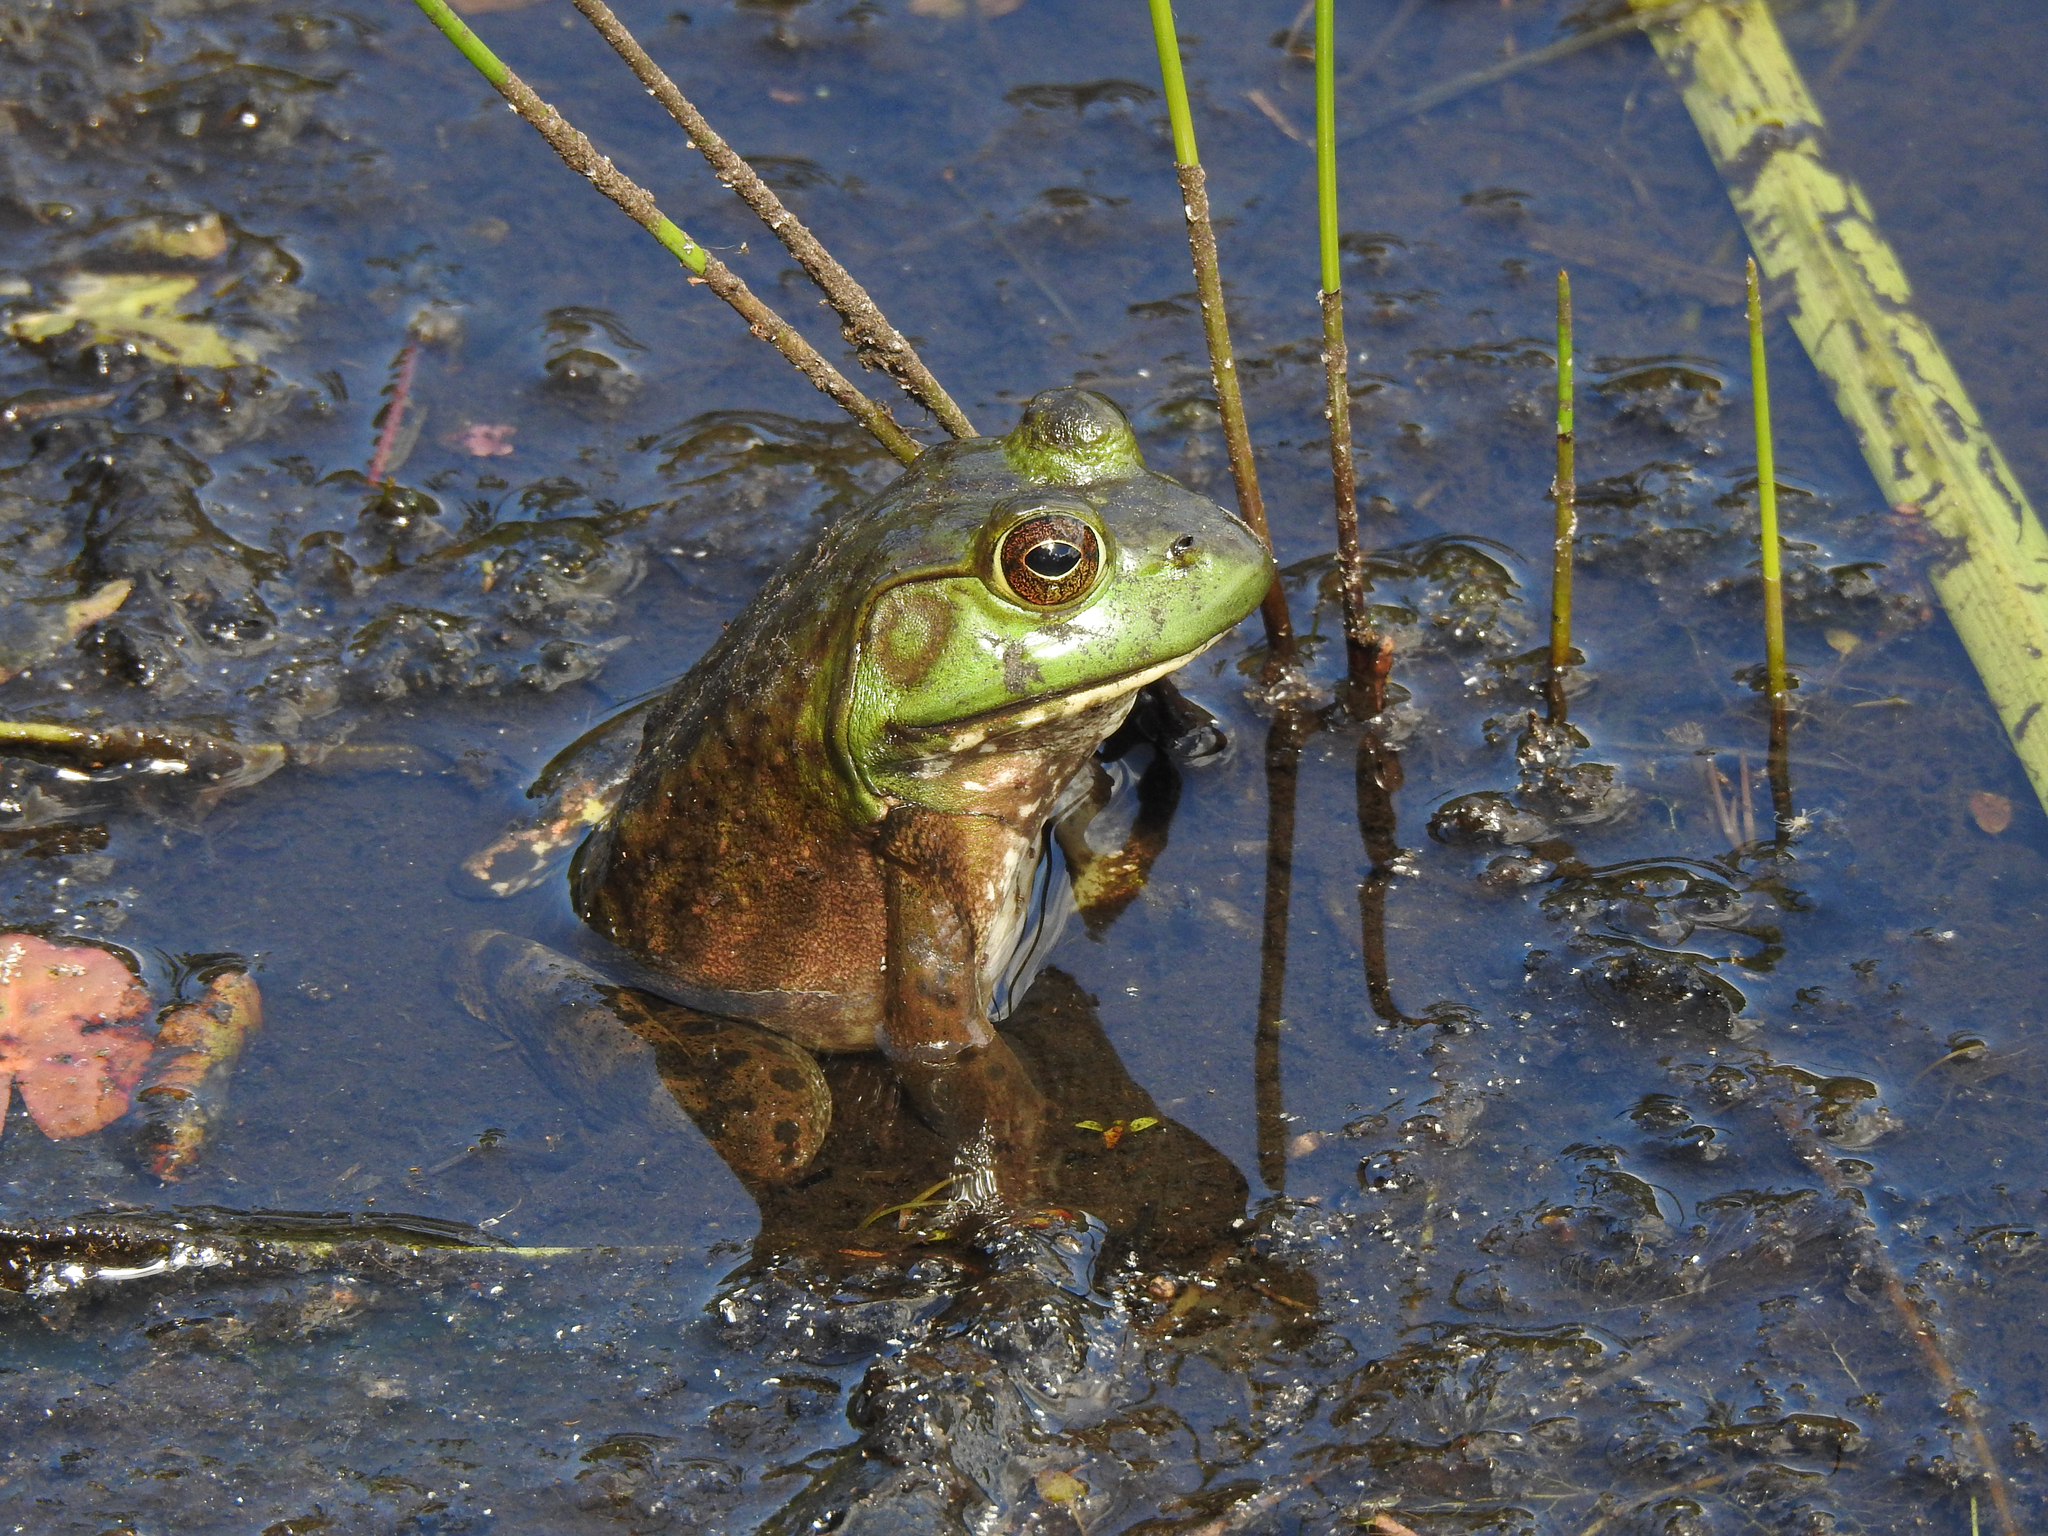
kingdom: Animalia
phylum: Chordata
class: Amphibia
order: Anura
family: Ranidae
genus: Lithobates
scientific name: Lithobates catesbeianus
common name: American bullfrog
